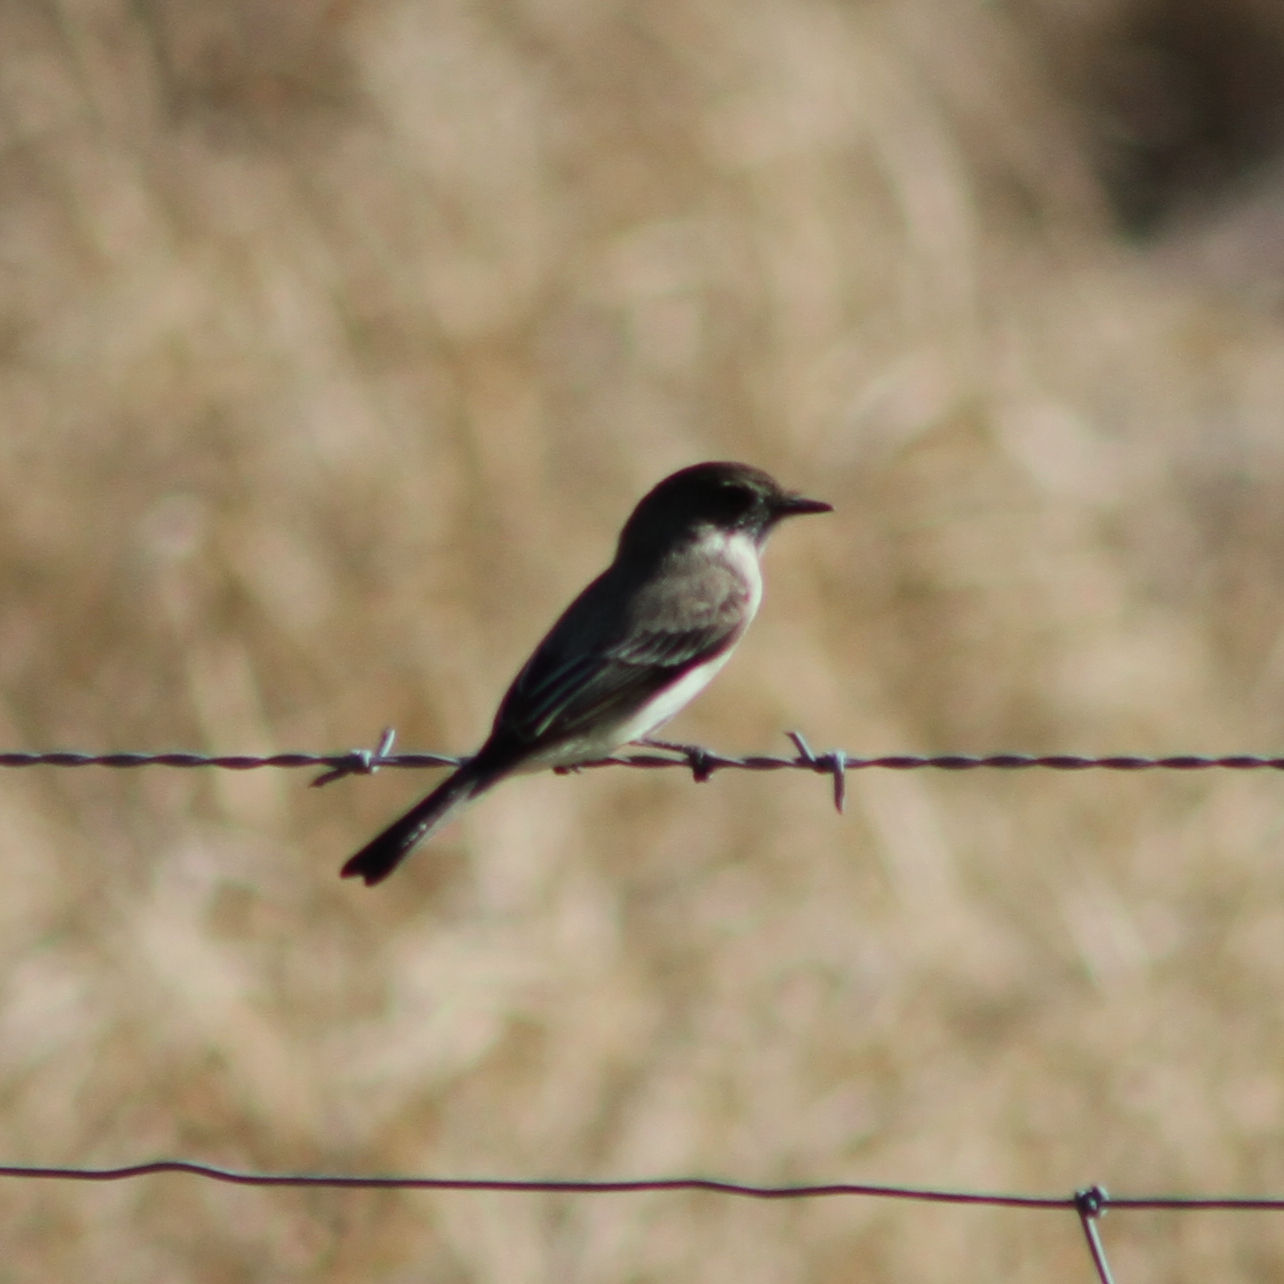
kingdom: Animalia
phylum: Chordata
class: Aves
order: Passeriformes
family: Tyrannidae
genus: Sayornis
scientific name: Sayornis phoebe
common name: Eastern phoebe
